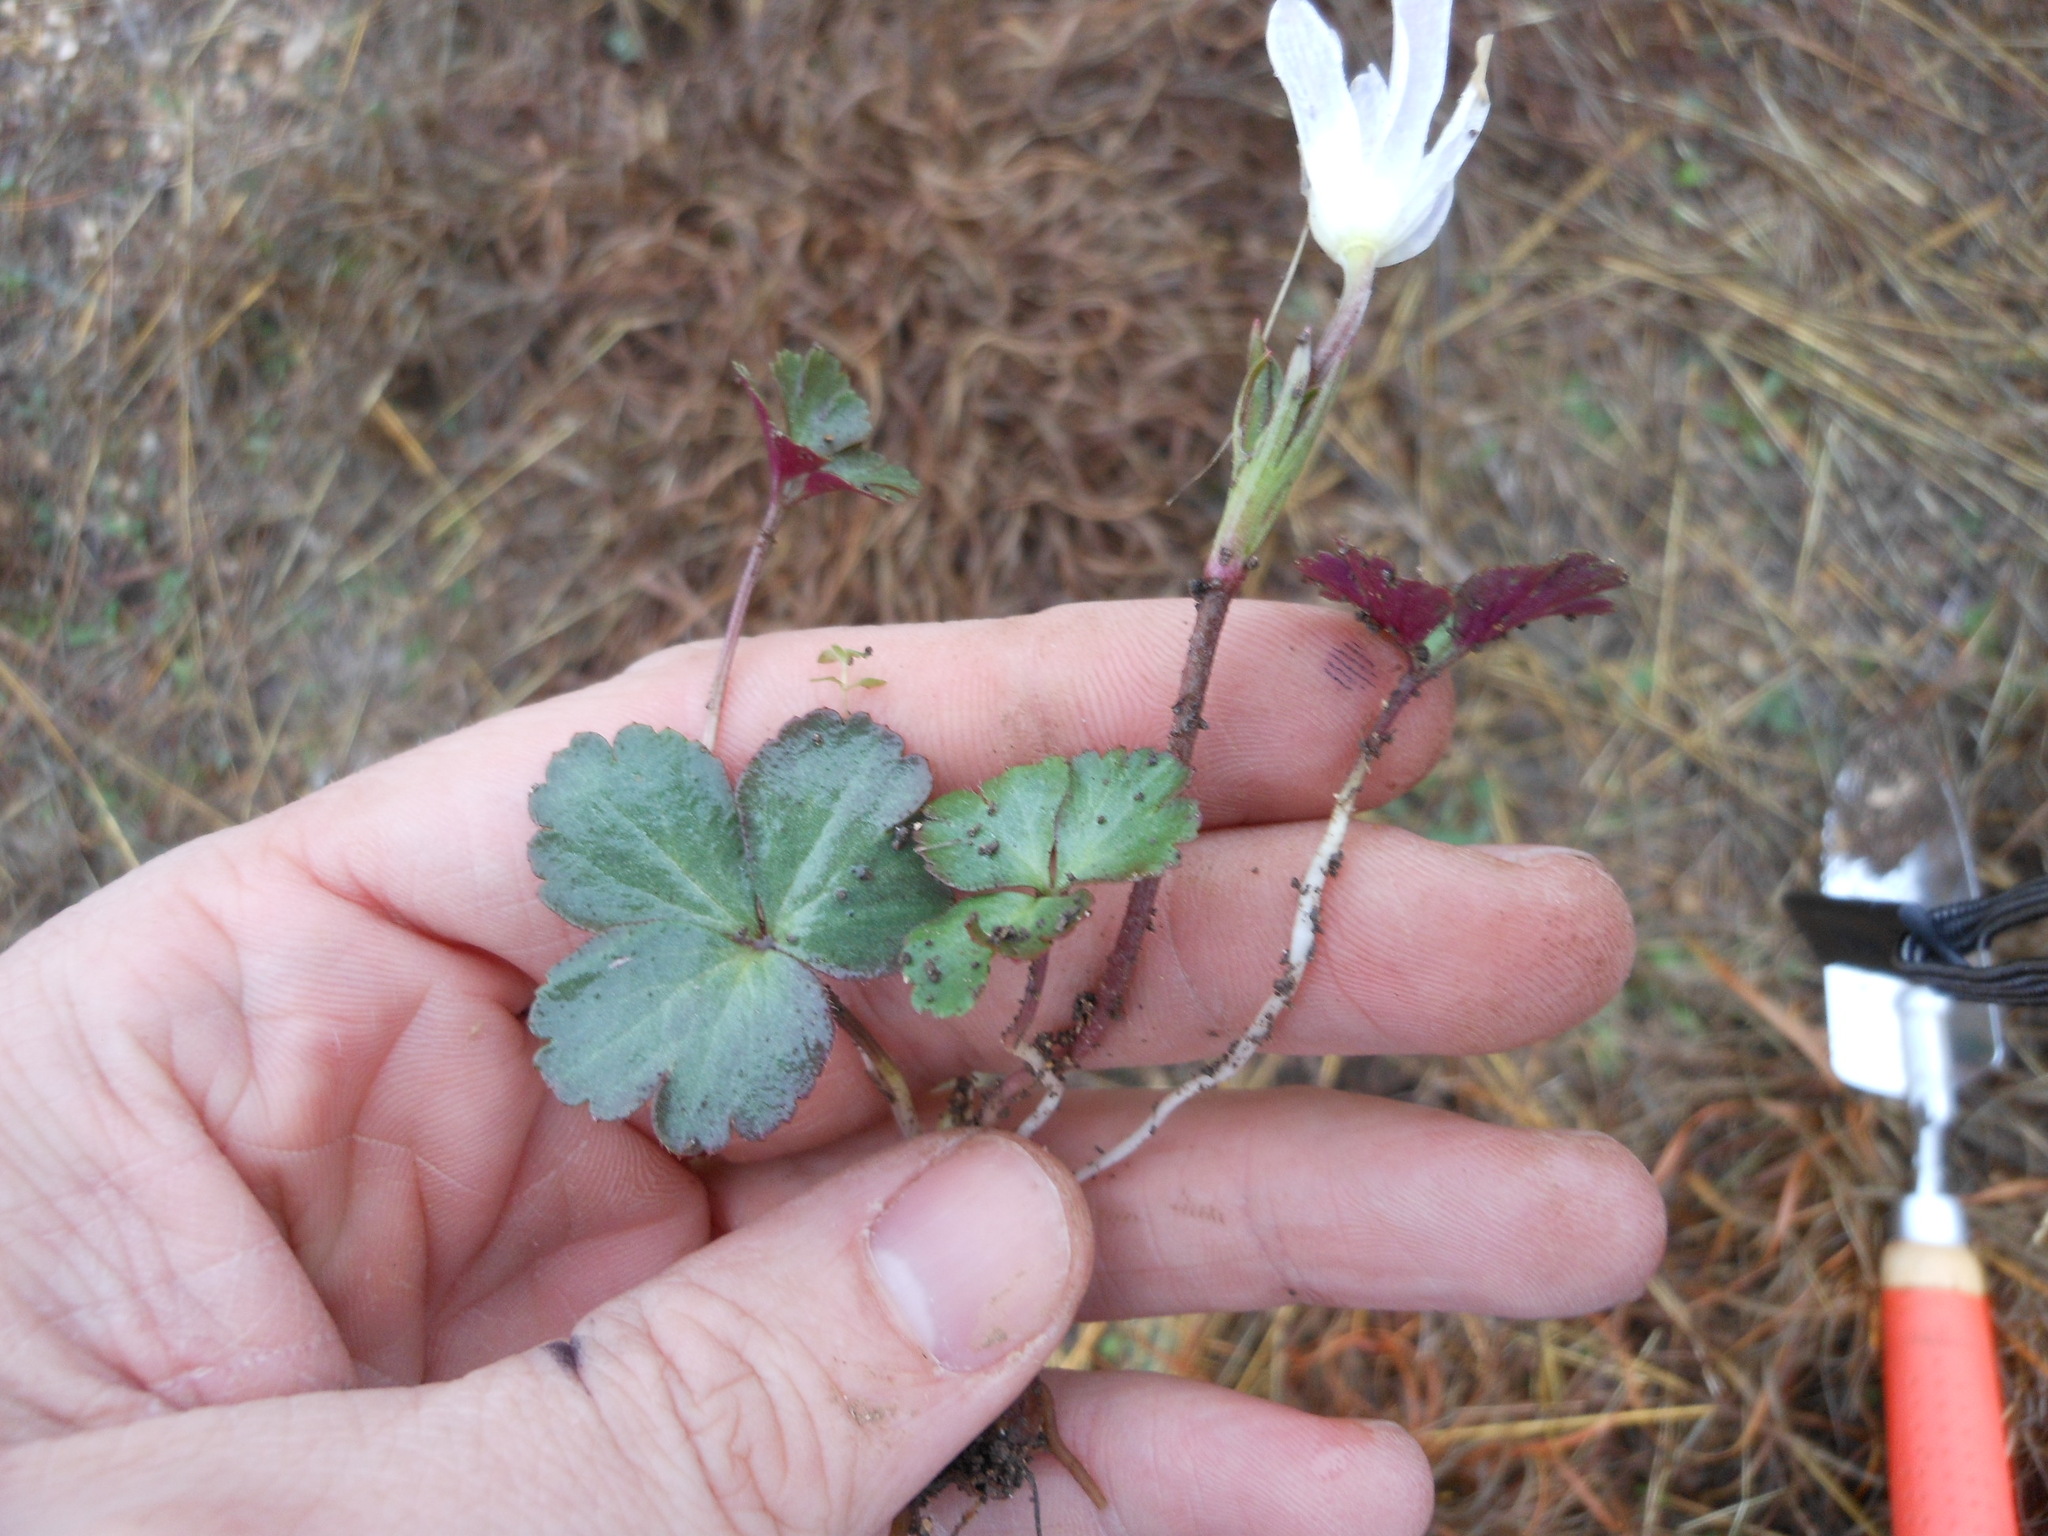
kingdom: Plantae
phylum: Tracheophyta
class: Magnoliopsida
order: Ranunculales
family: Ranunculaceae
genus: Anemone
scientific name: Anemone berlandieri
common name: Ten-petal anemone
